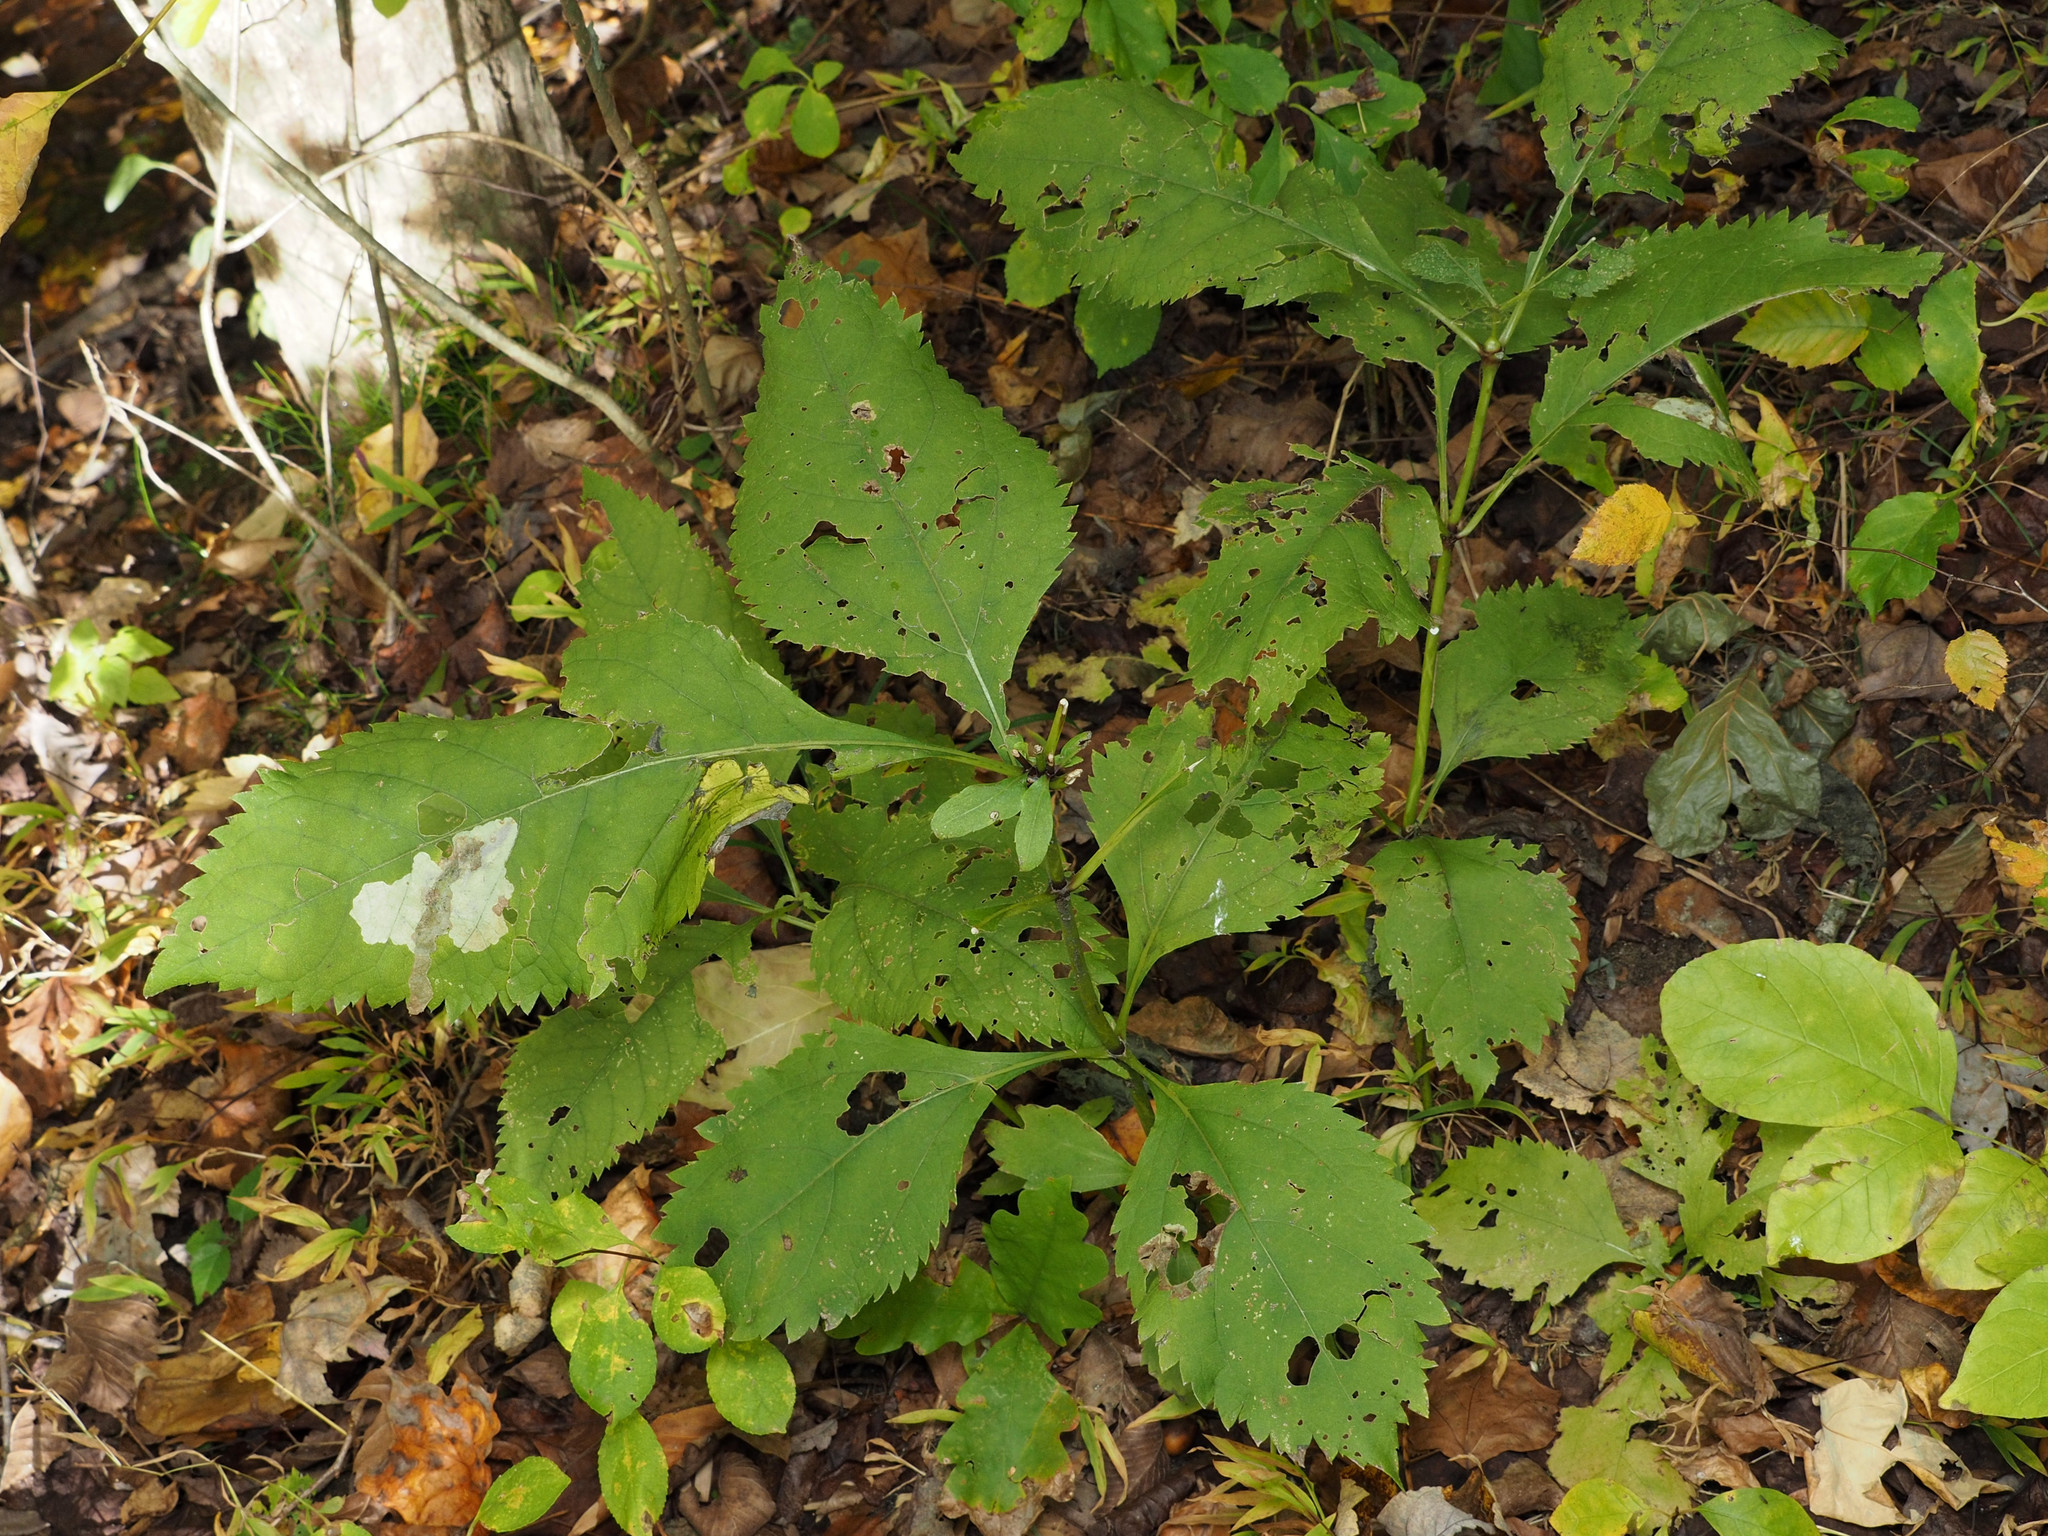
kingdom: Animalia
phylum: Arthropoda
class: Insecta
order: Diptera
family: Agromyzidae
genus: Calycomyza
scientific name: Calycomyza flavinotum
